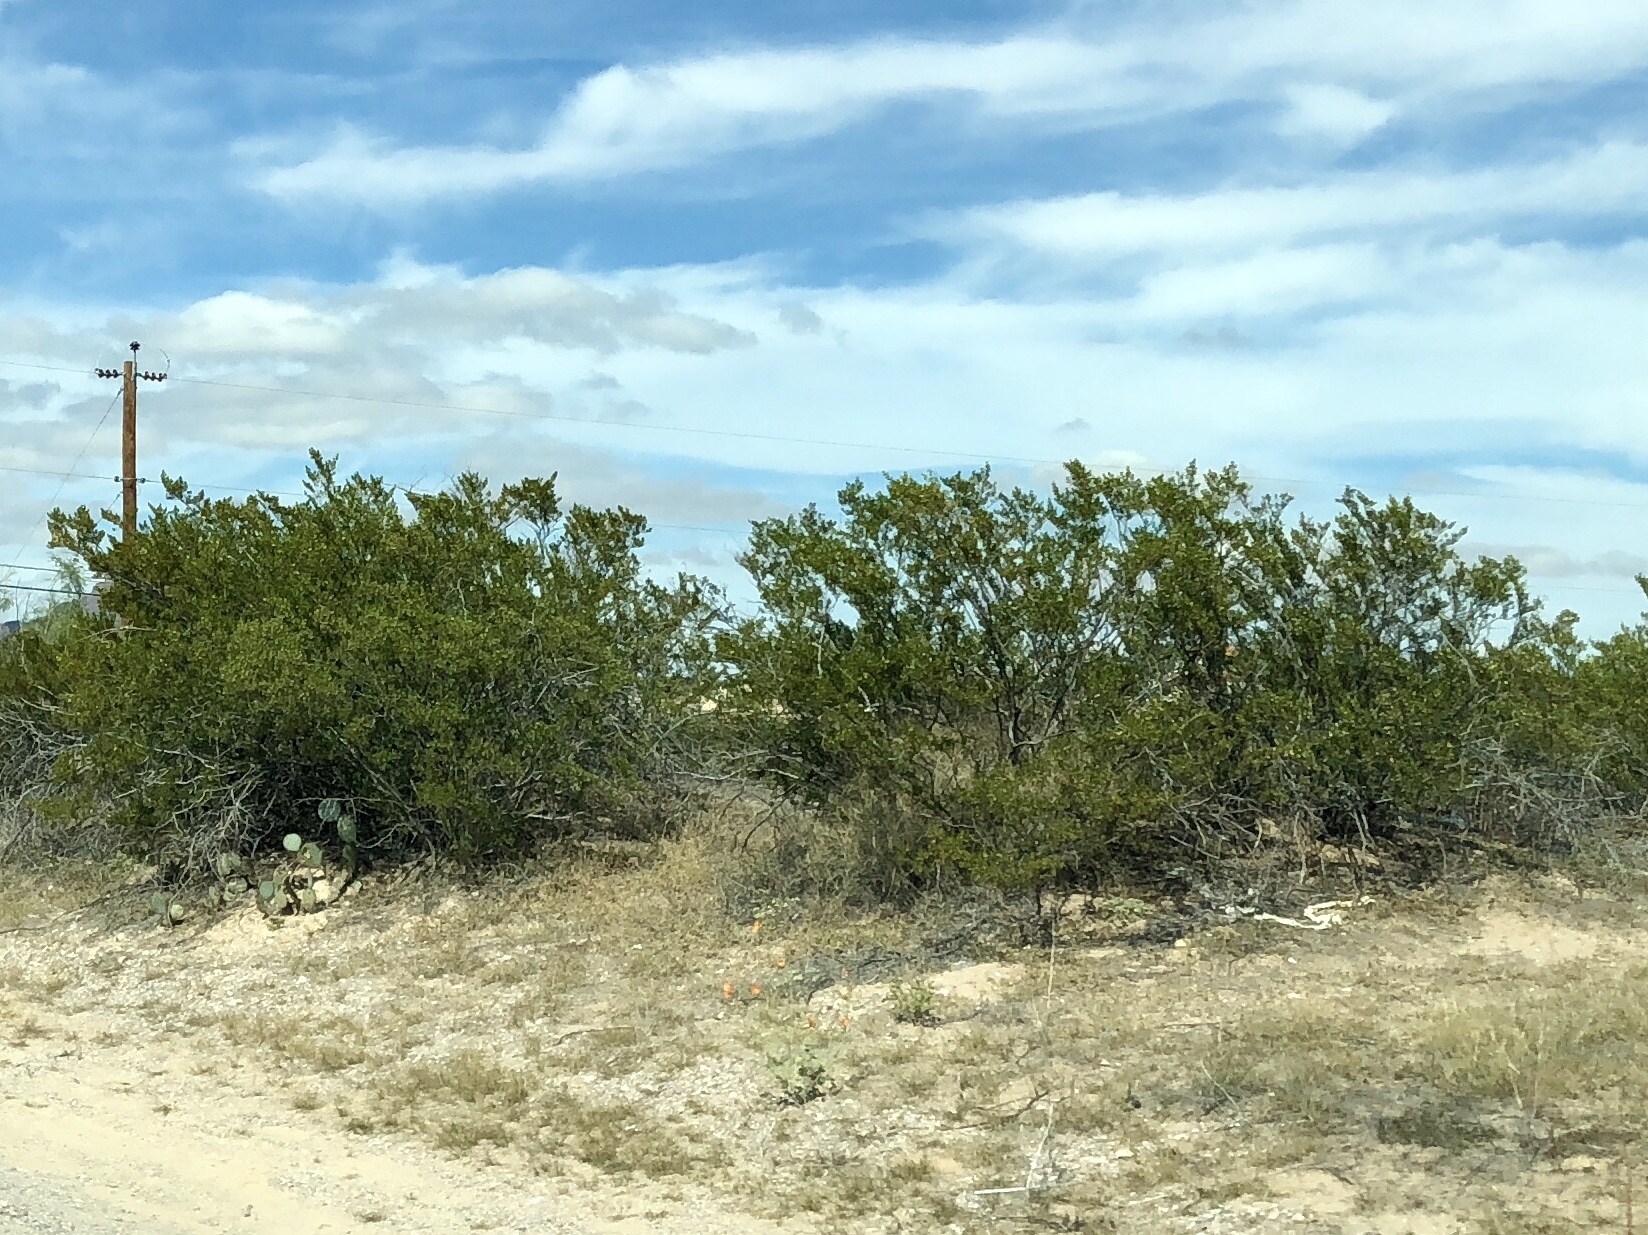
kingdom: Plantae
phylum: Tracheophyta
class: Magnoliopsida
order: Zygophyllales
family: Zygophyllaceae
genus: Larrea
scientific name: Larrea tridentata
